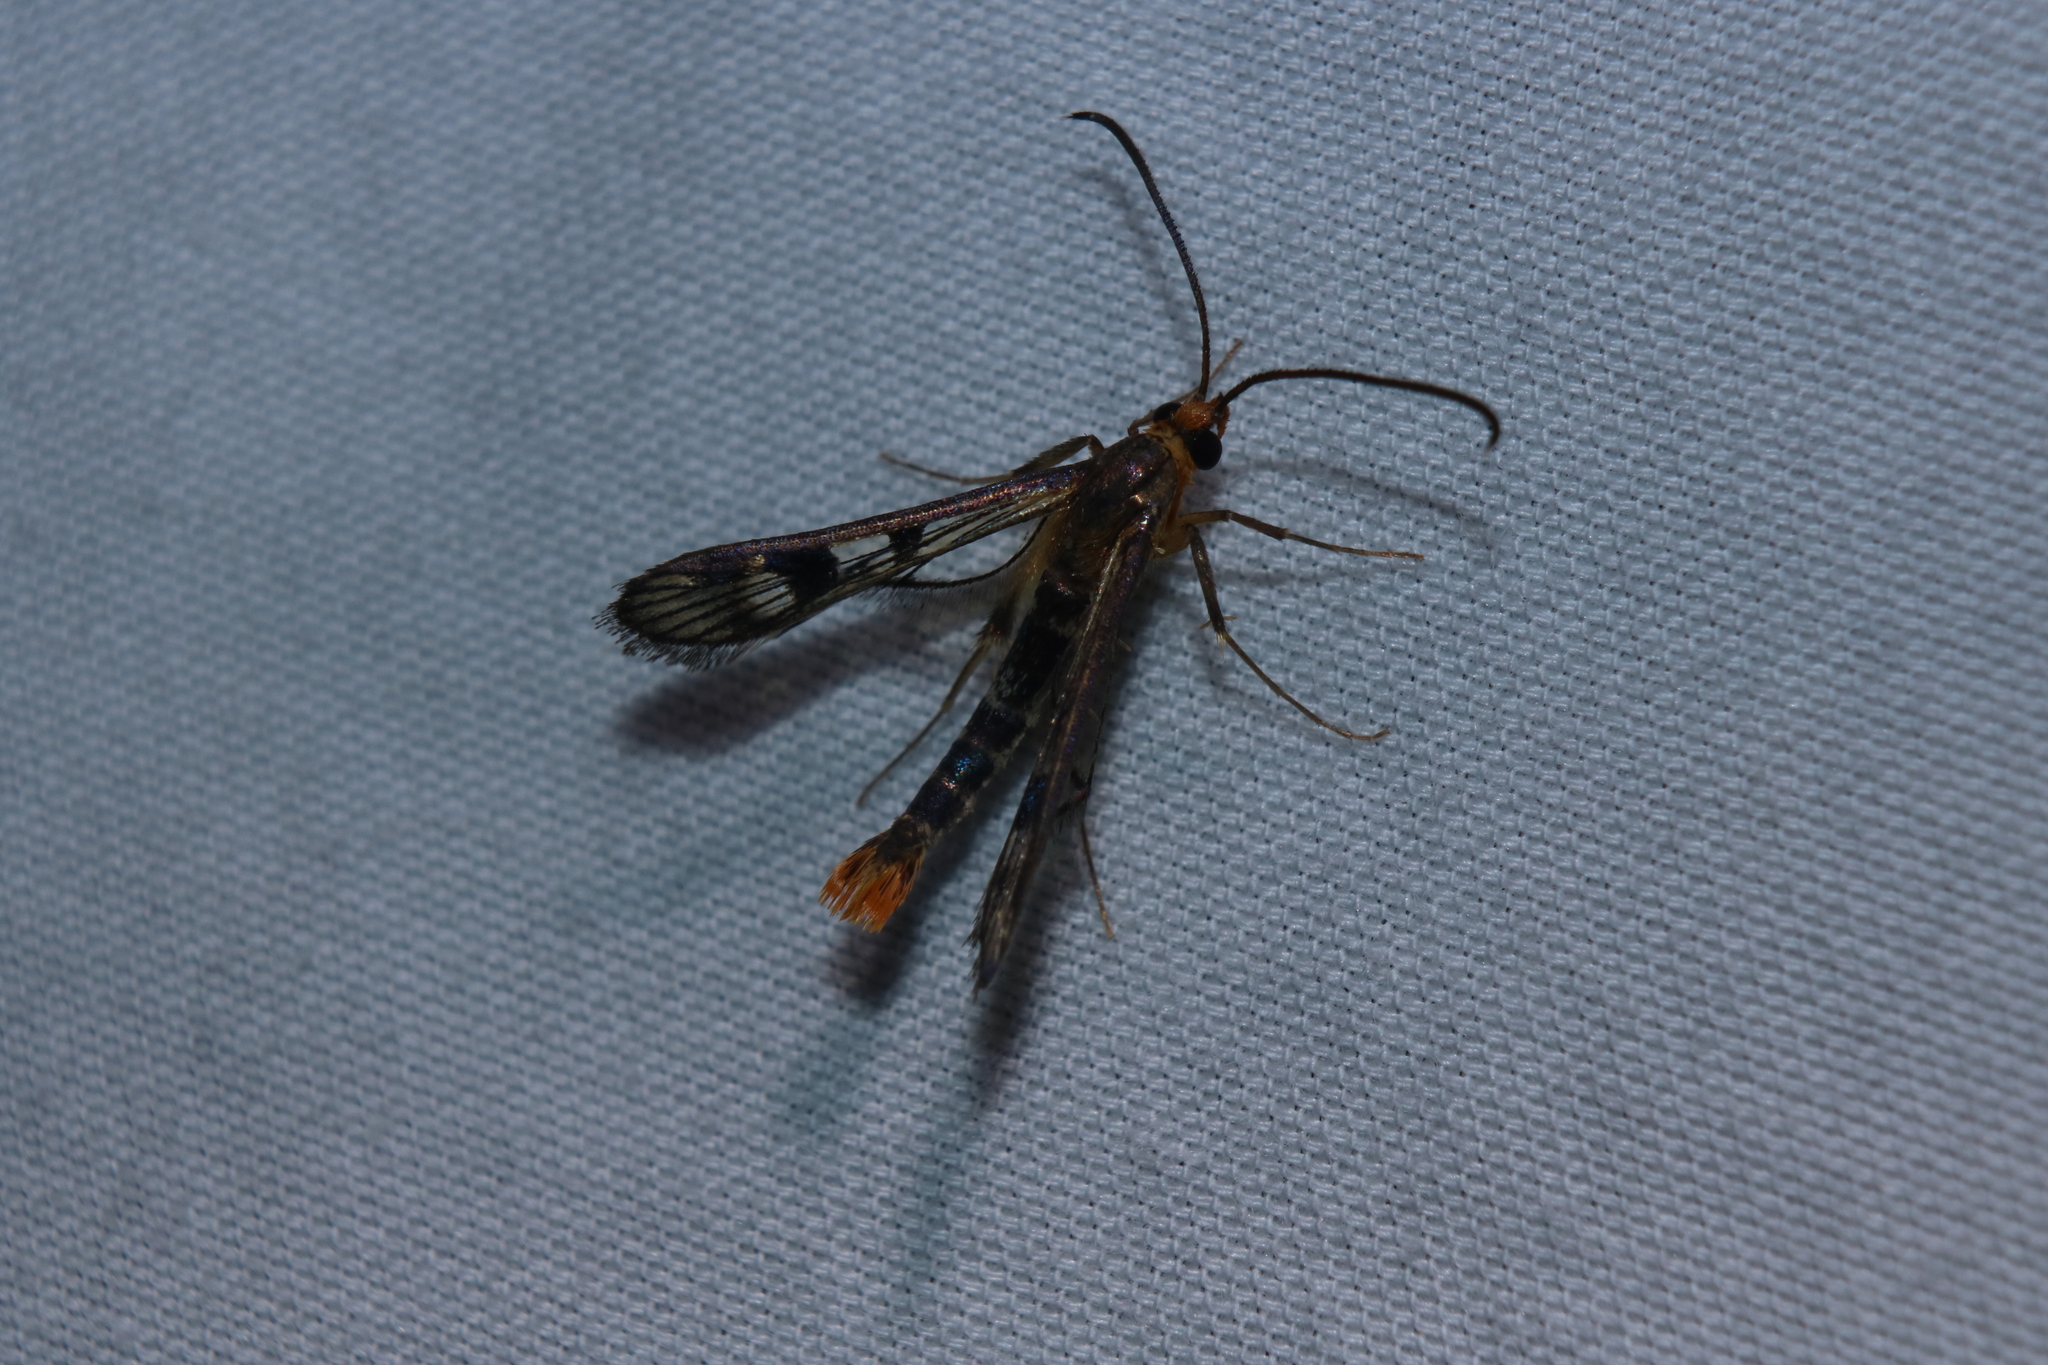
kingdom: Animalia
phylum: Arthropoda
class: Insecta
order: Lepidoptera
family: Sesiidae
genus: Synanthedon
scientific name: Synanthedon acerni
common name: Maple callus borer moth
